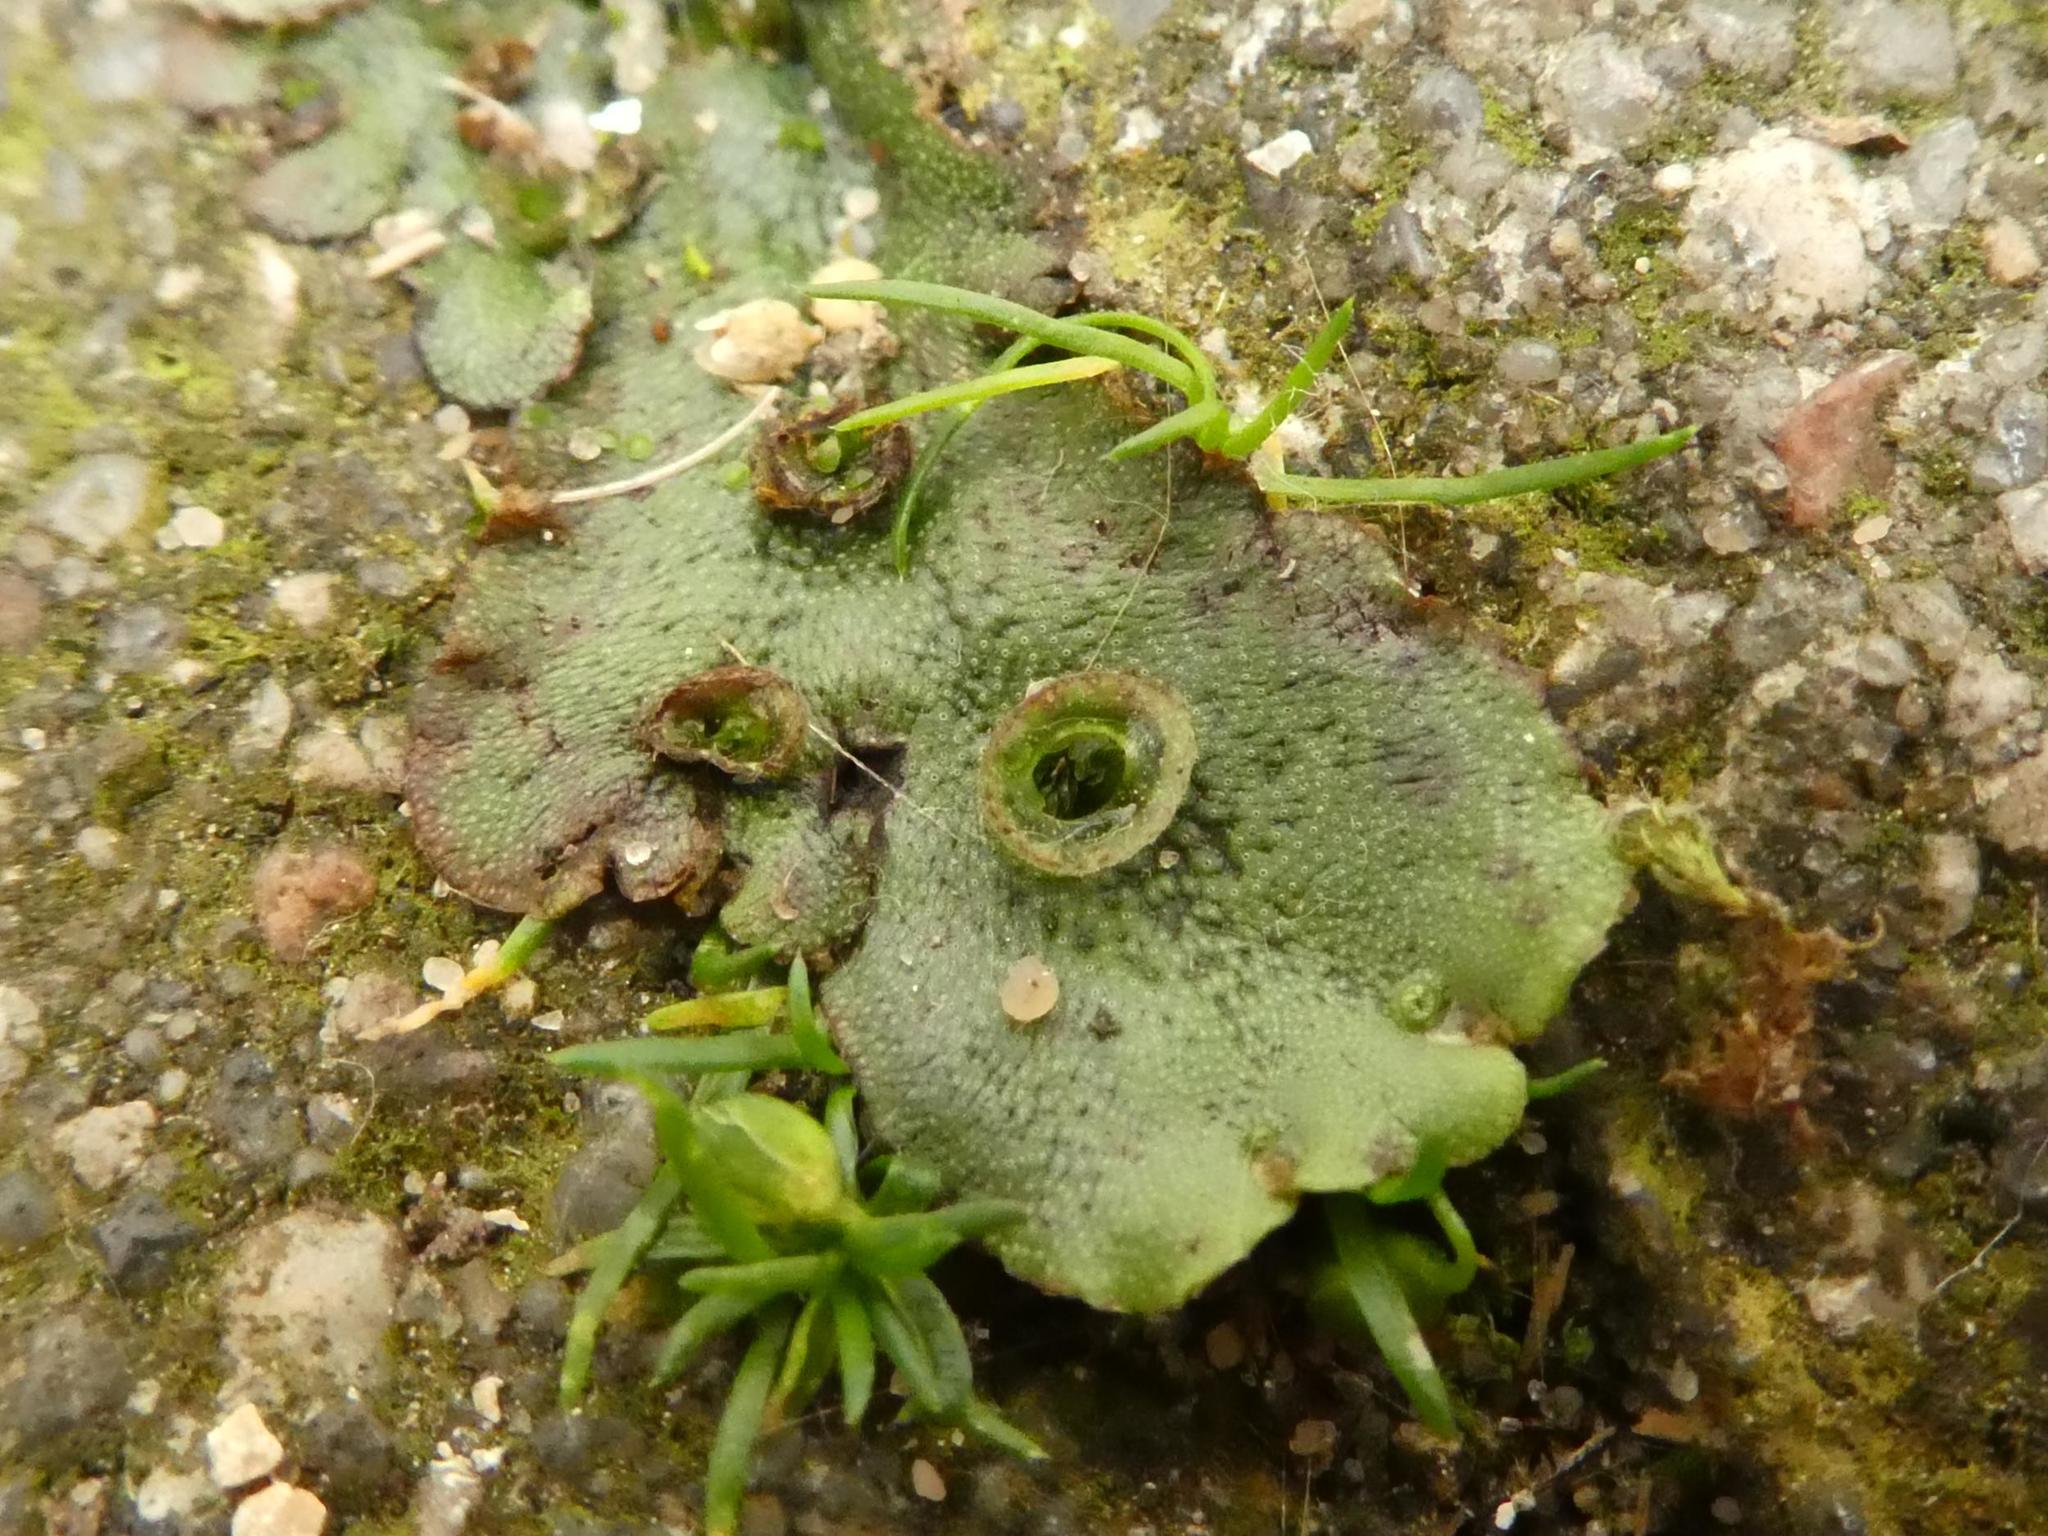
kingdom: Plantae
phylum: Marchantiophyta
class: Marchantiopsida
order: Marchantiales
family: Marchantiaceae
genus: Marchantia
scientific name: Marchantia polymorpha
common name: Common liverwort
